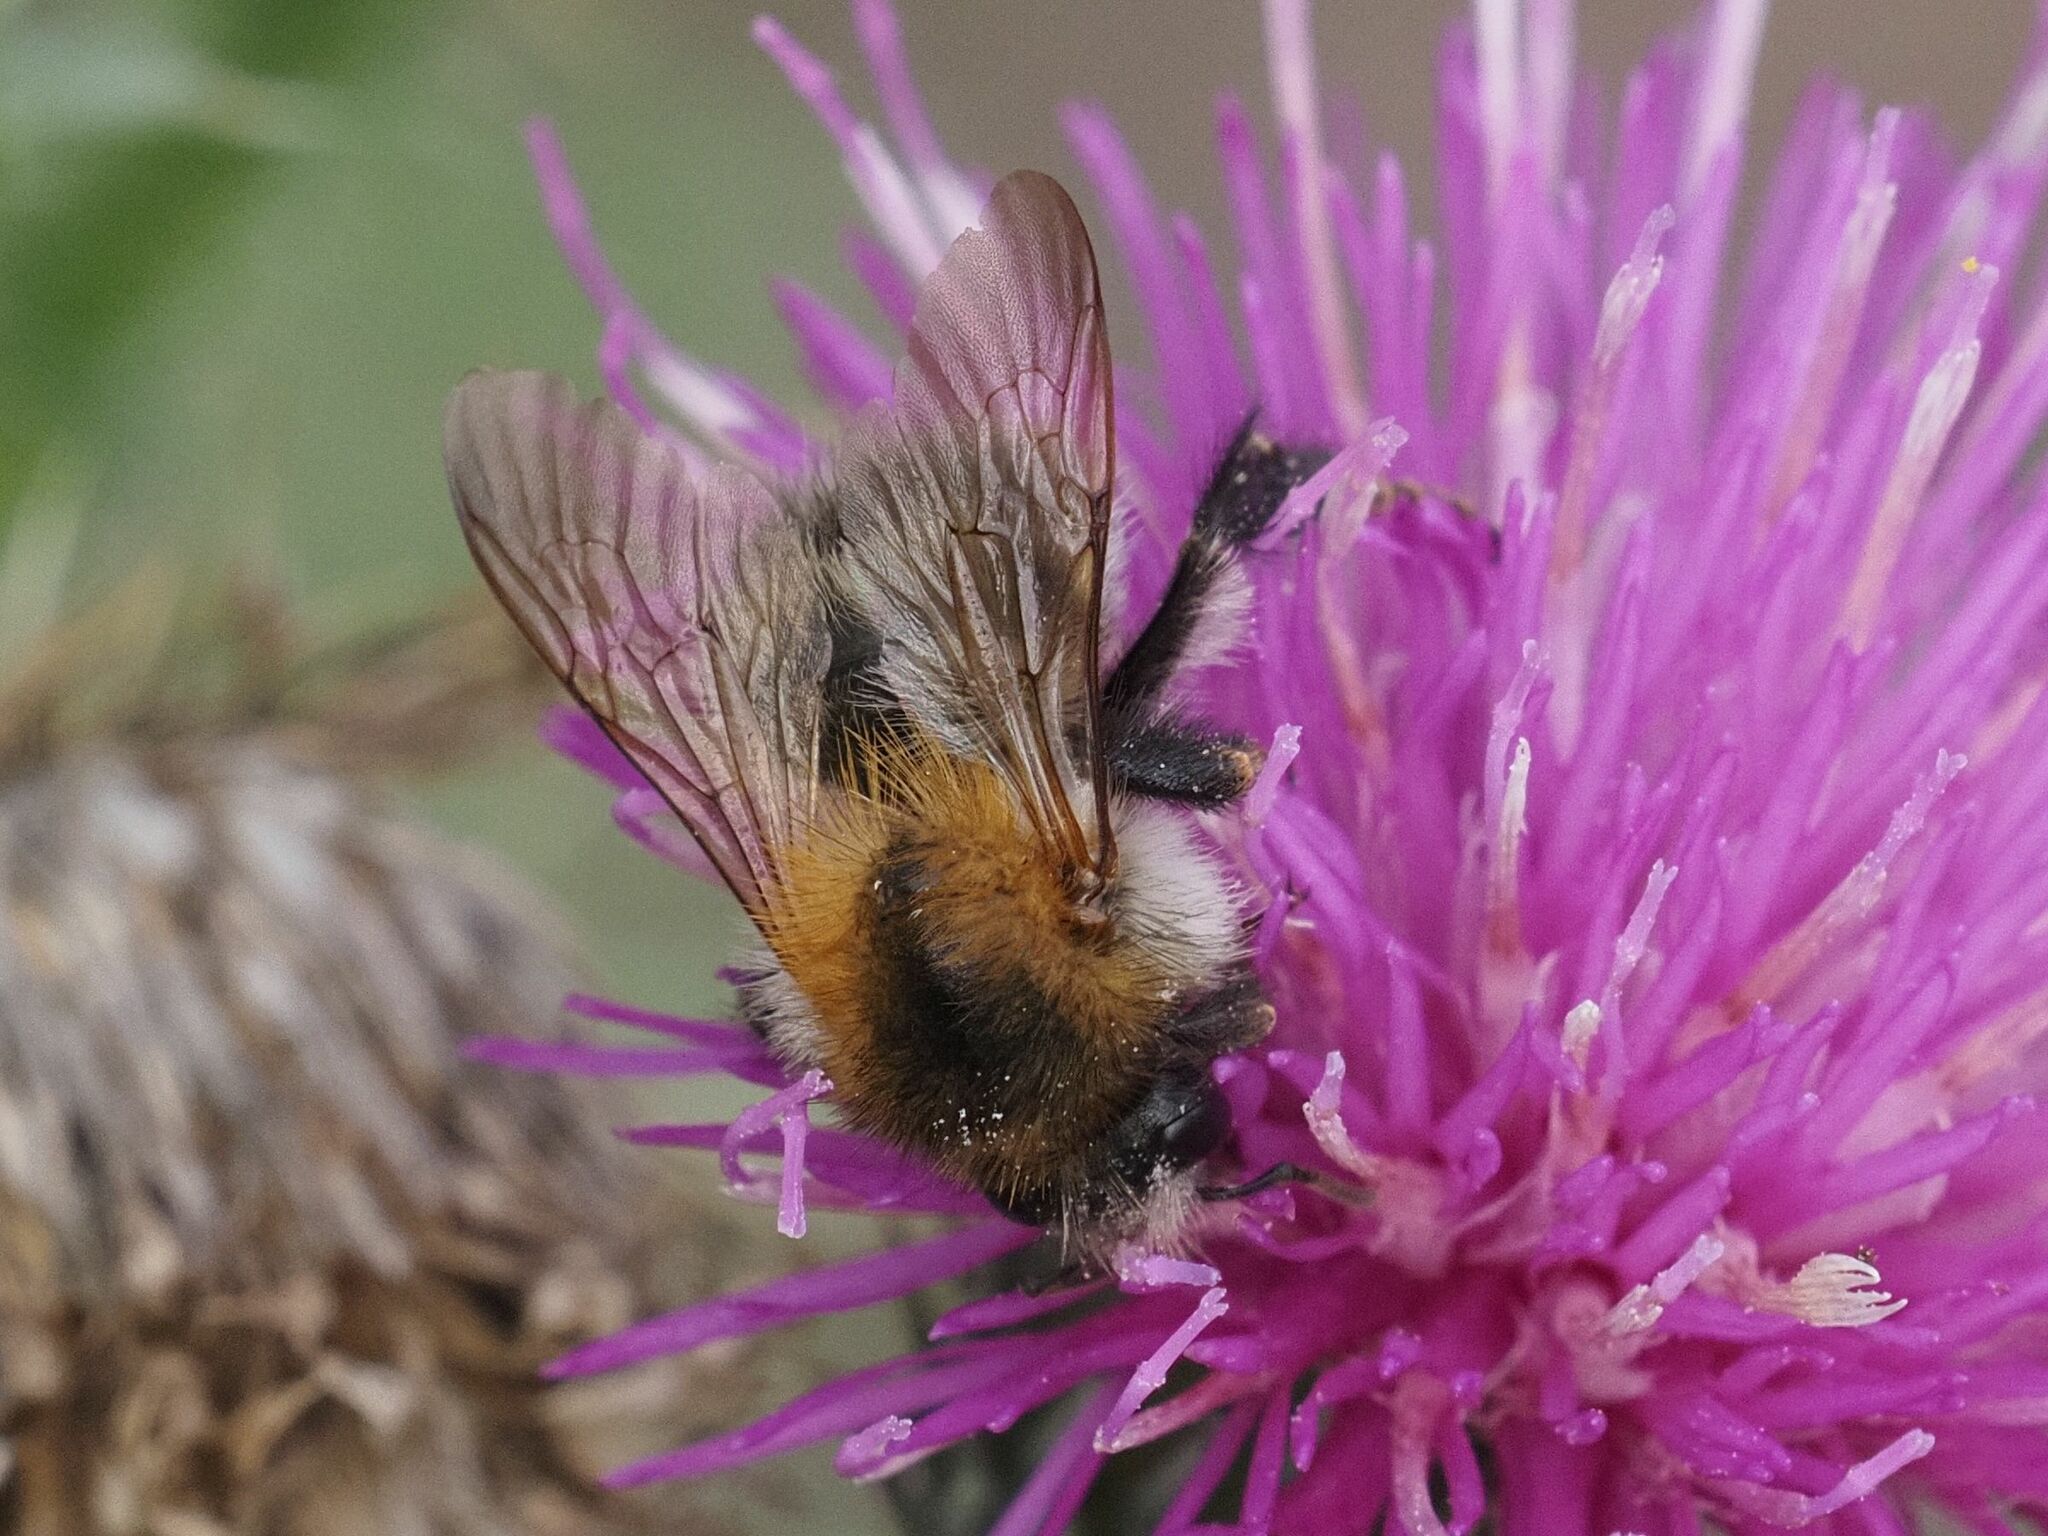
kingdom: Animalia
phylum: Arthropoda
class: Insecta
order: Hymenoptera
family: Apidae
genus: Bombus
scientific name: Bombus pascuorum
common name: Common carder bee
